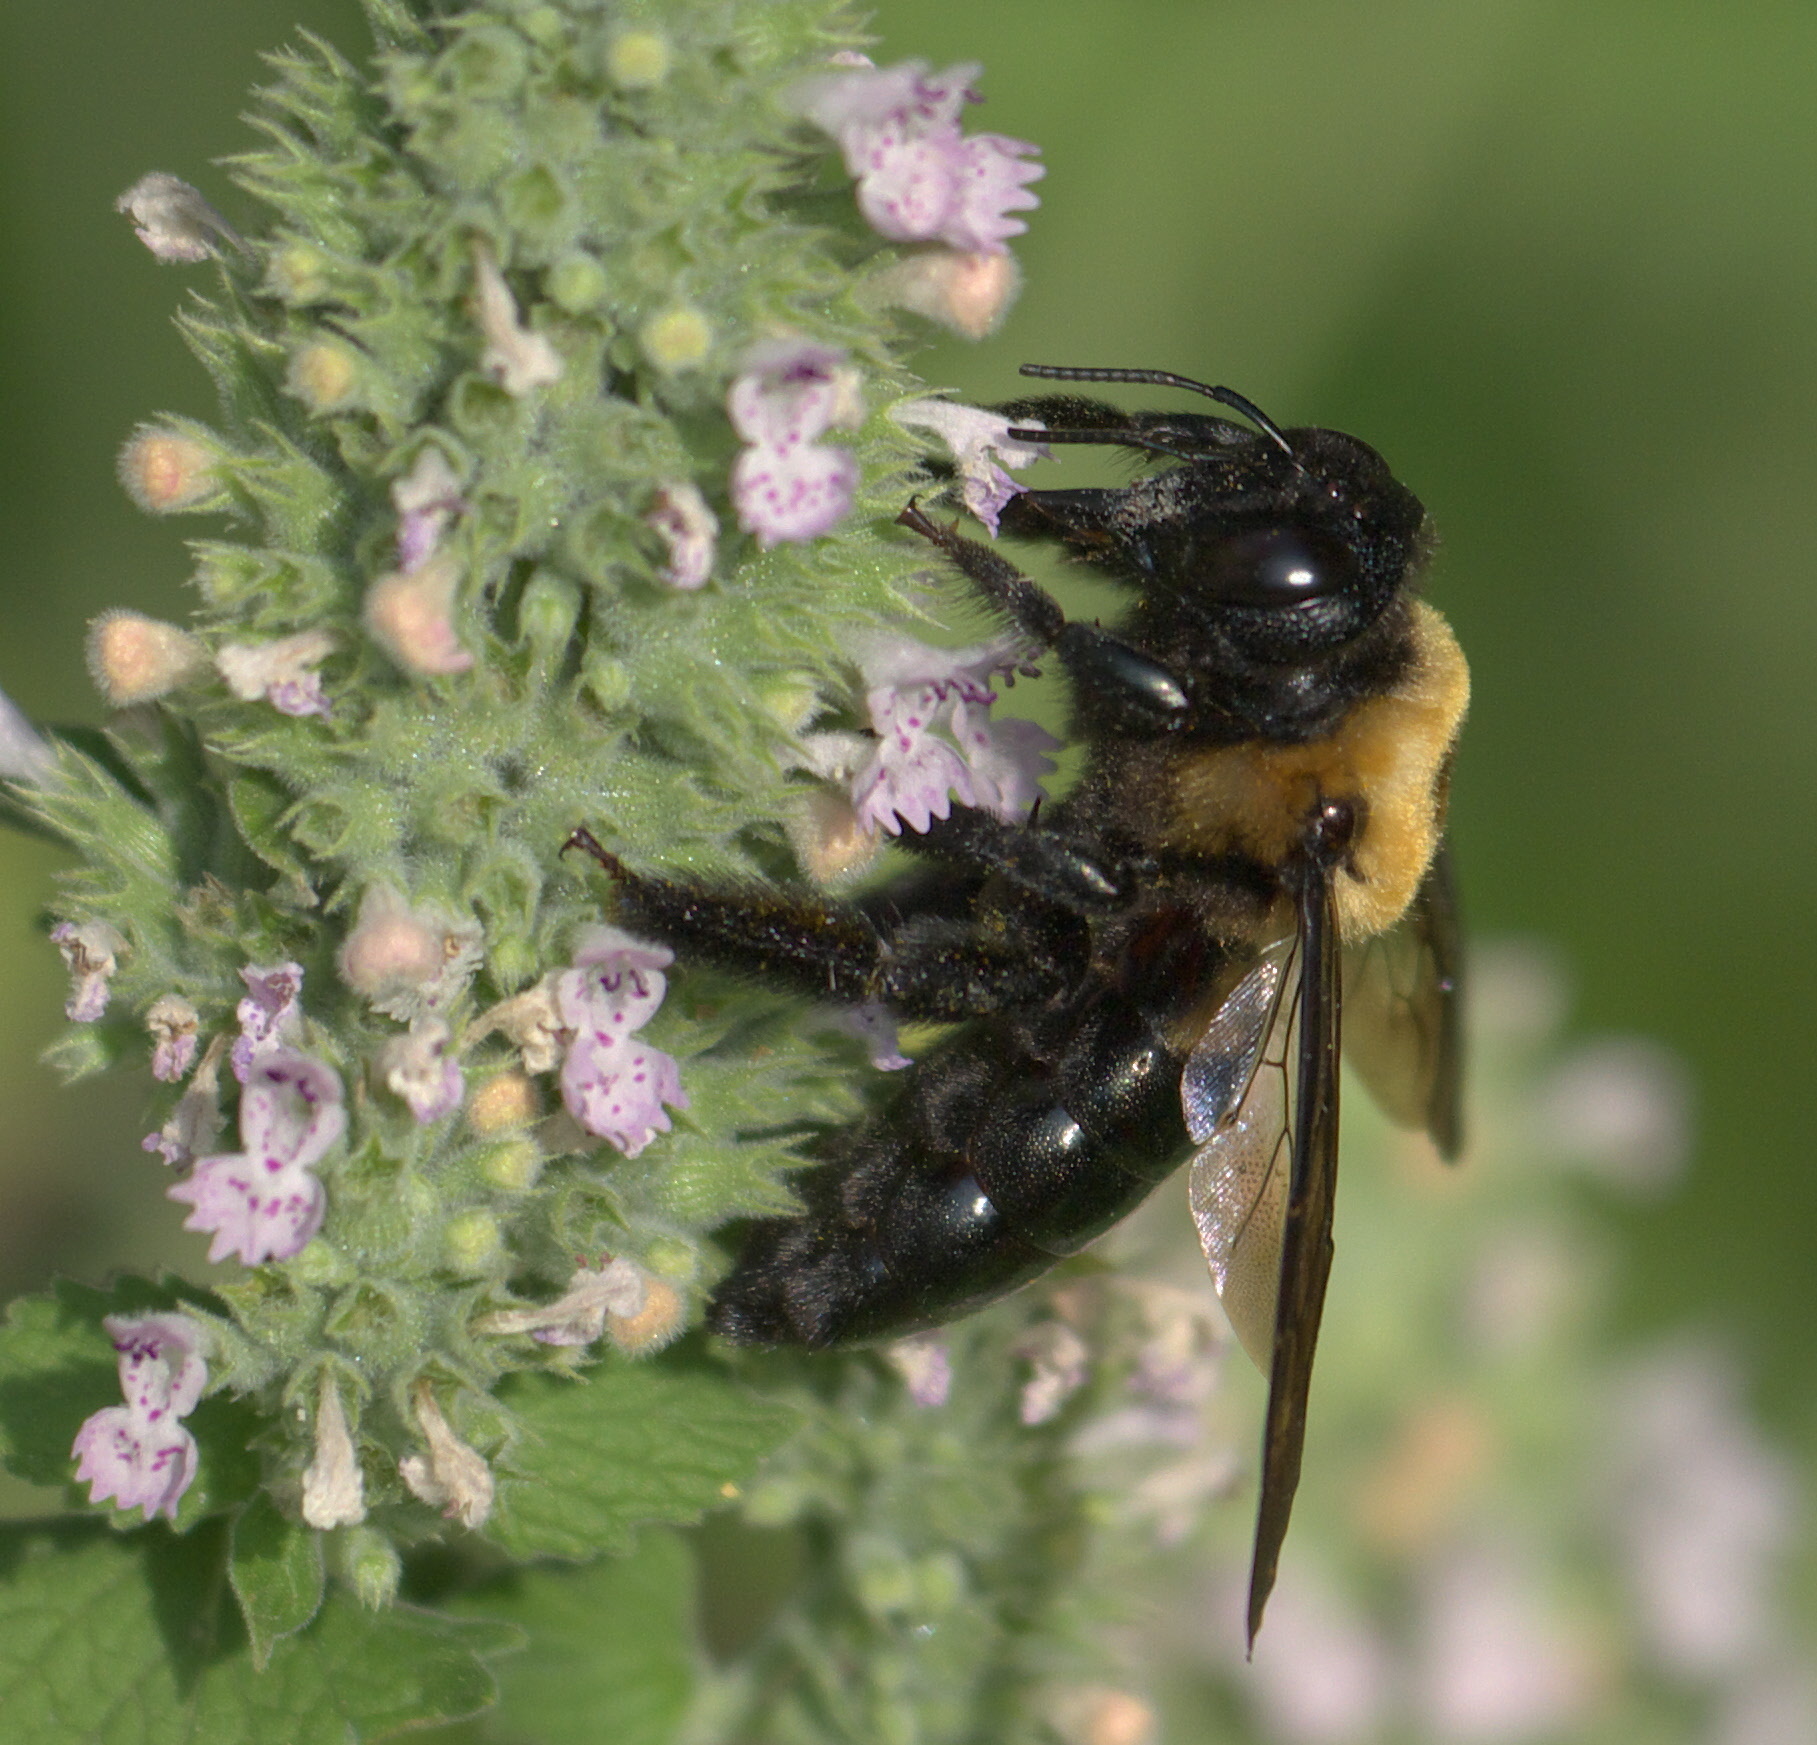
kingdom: Animalia
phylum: Arthropoda
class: Insecta
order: Hymenoptera
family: Apidae
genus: Xylocopa
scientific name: Xylocopa virginica
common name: Carpenter bee
